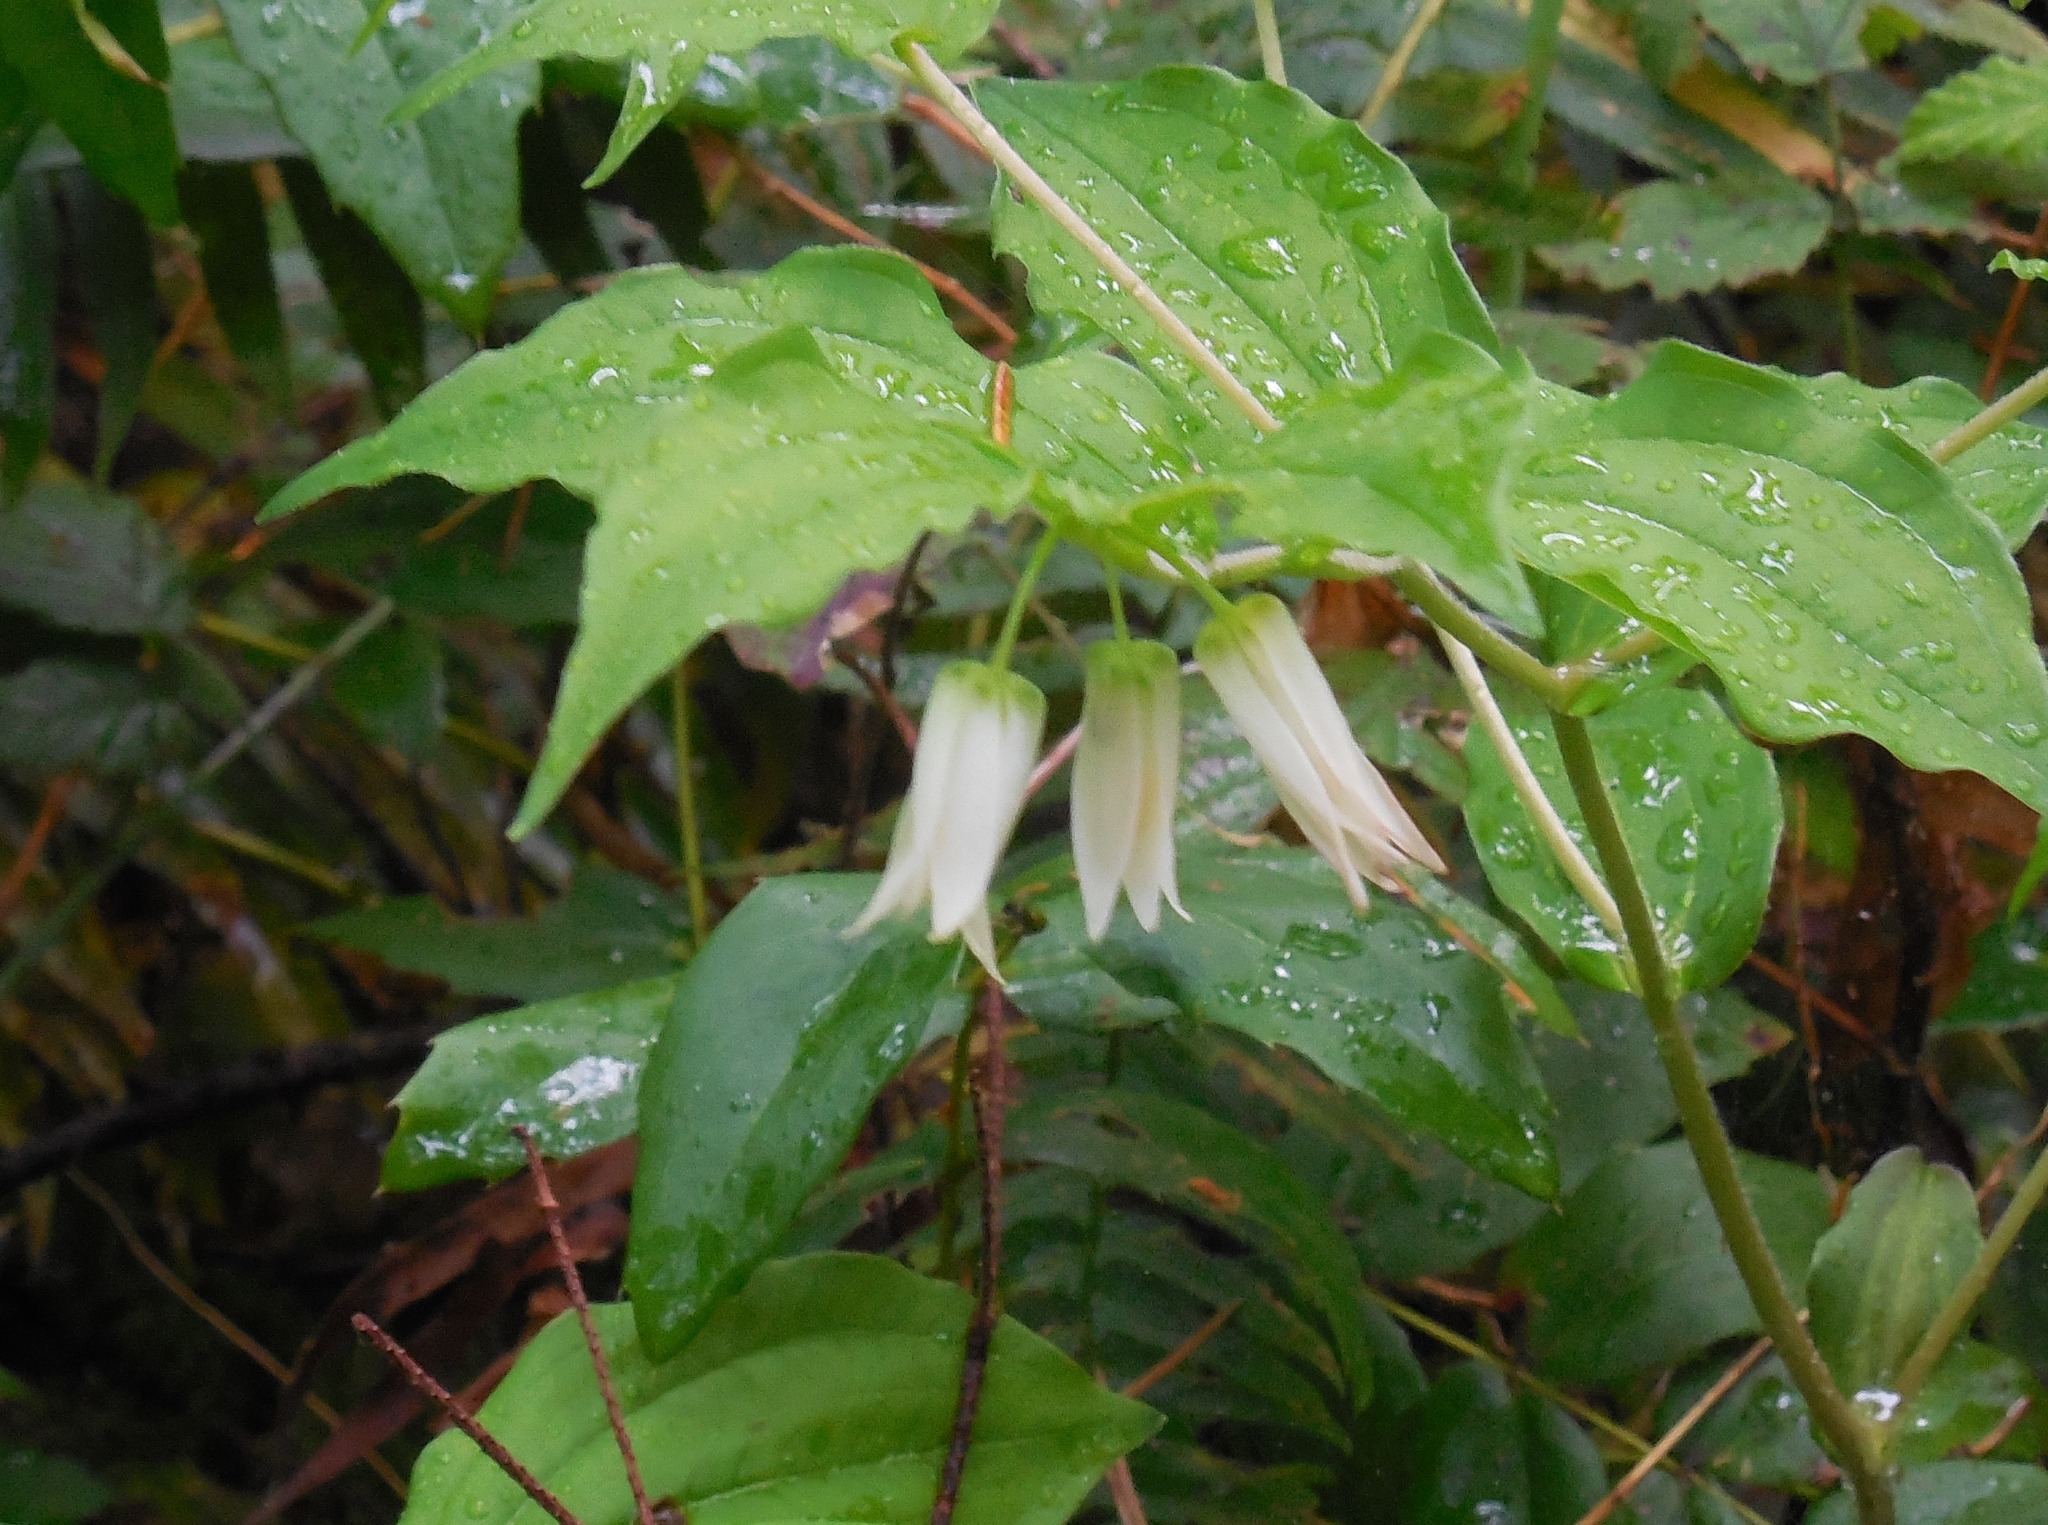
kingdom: Plantae
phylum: Tracheophyta
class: Liliopsida
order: Liliales
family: Liliaceae
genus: Prosartes
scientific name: Prosartes smithii
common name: Fairy-lantern
